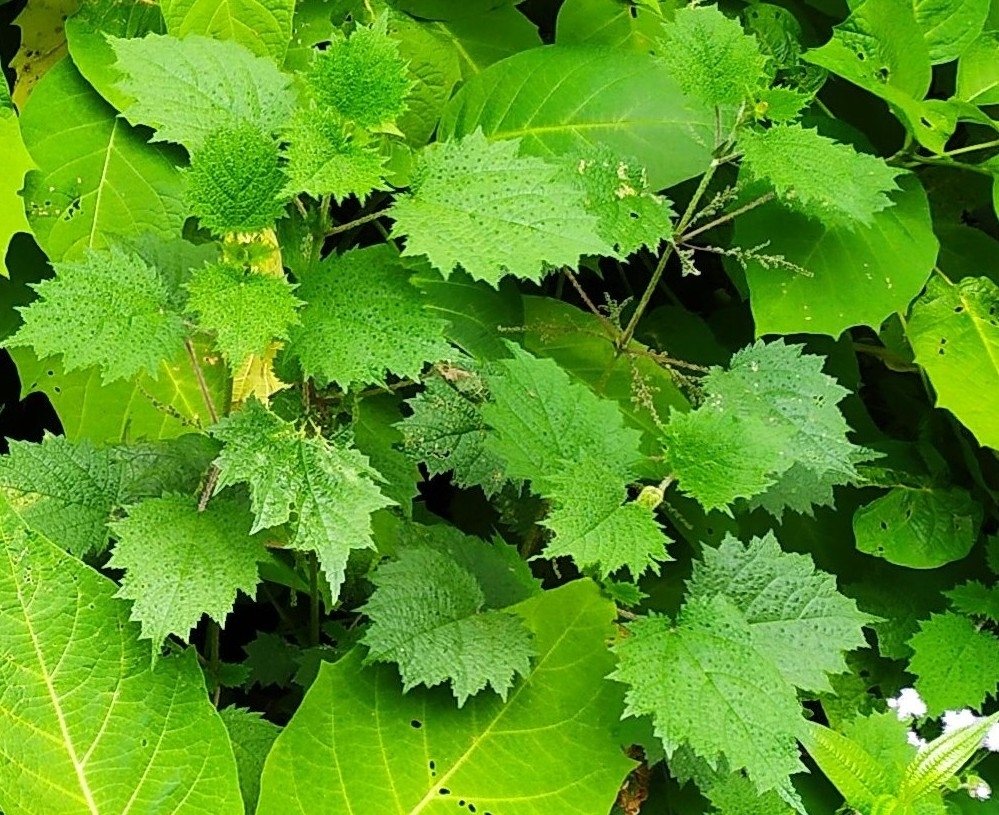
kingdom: Plantae
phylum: Tracheophyta
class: Magnoliopsida
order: Rosales
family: Urticaceae
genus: Urtica
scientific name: Urtica thunbergiana
